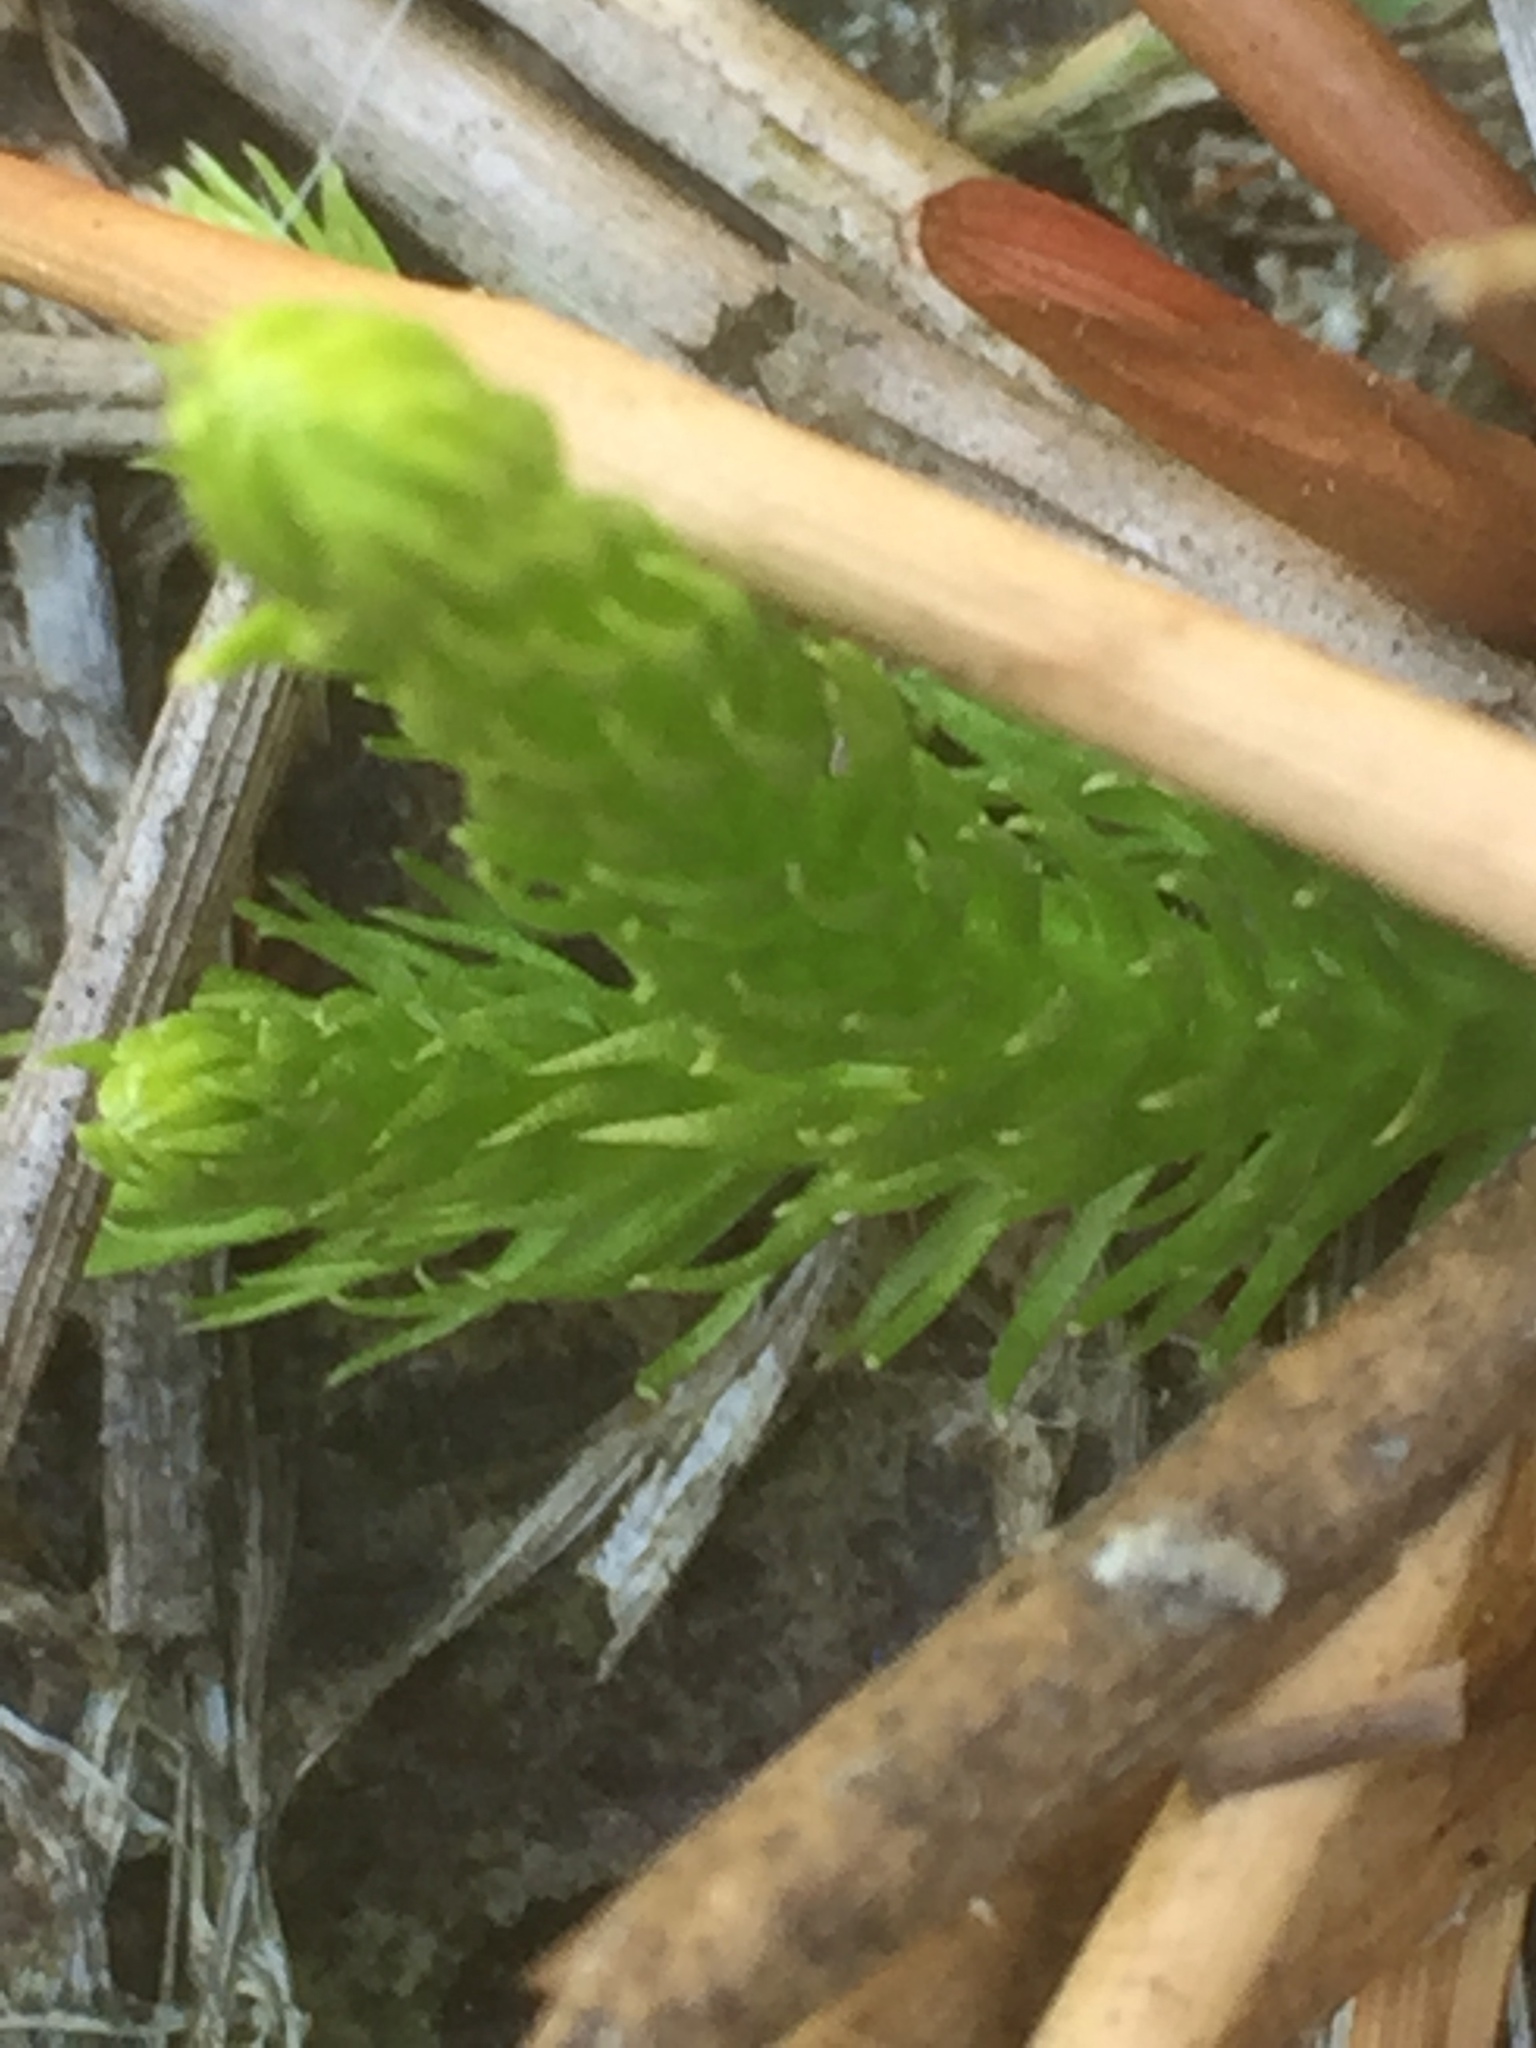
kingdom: Plantae
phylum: Tracheophyta
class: Lycopodiopsida
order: Lycopodiales
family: Lycopodiaceae
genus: Lycopodiella
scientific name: Lycopodiella inundata
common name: Marsh clubmoss
